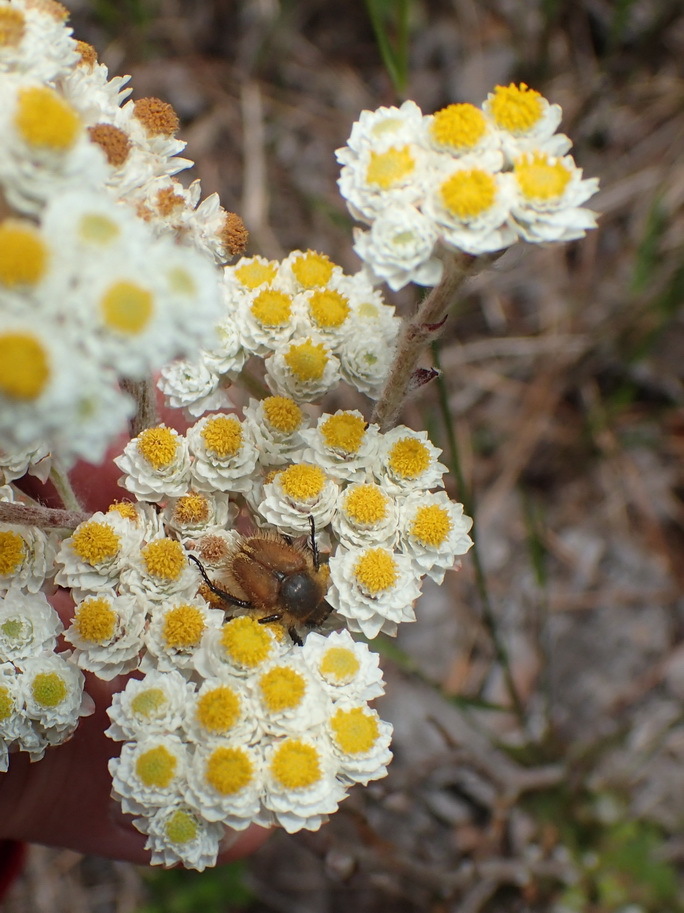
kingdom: Plantae
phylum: Tracheophyta
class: Magnoliopsida
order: Asterales
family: Asteraceae
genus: Helichrysum
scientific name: Helichrysum felinum
